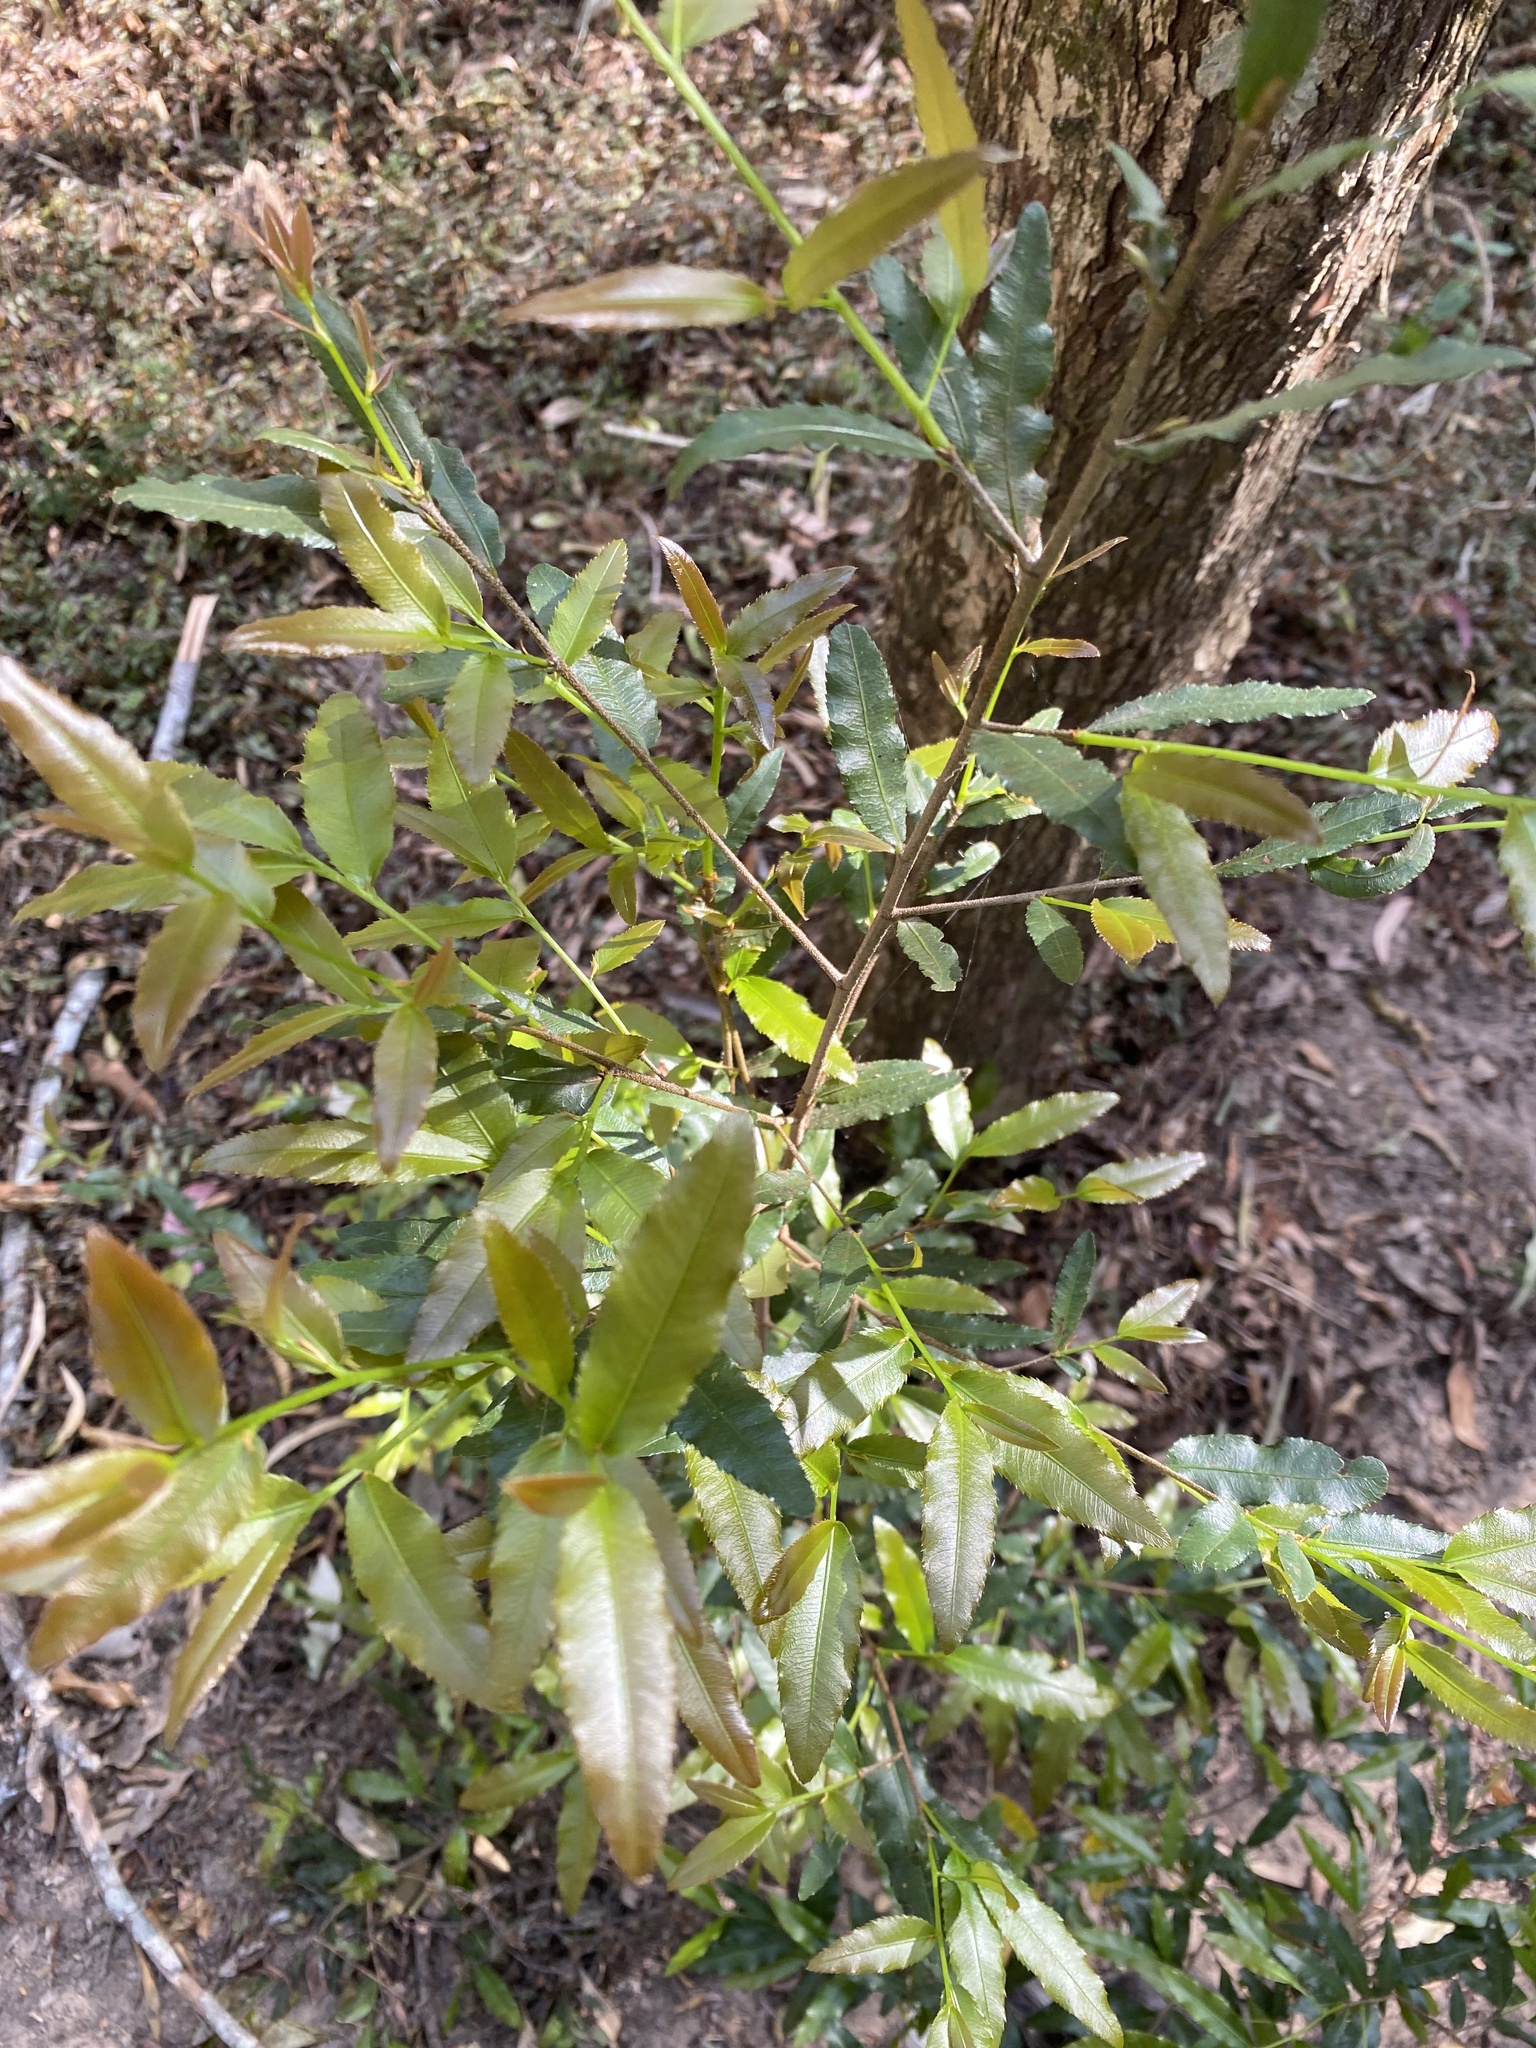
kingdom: Plantae
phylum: Tracheophyta
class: Magnoliopsida
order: Malpighiales
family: Ochnaceae
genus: Ochna
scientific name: Ochna serrulata
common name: Mickey mouse plant
